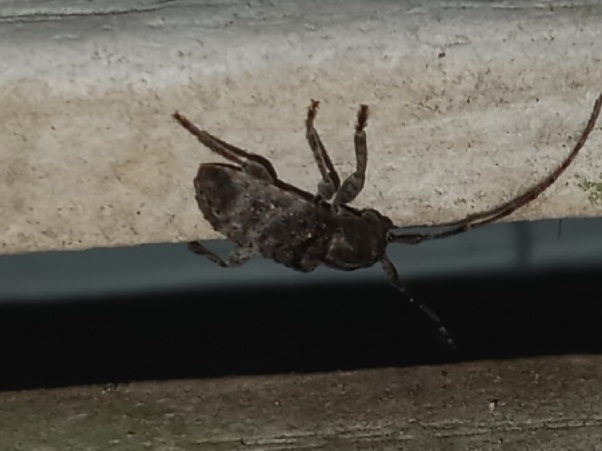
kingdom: Animalia
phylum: Arthropoda
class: Insecta
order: Coleoptera
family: Cerambycidae
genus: Ecyrus
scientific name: Ecyrus dasycerus
